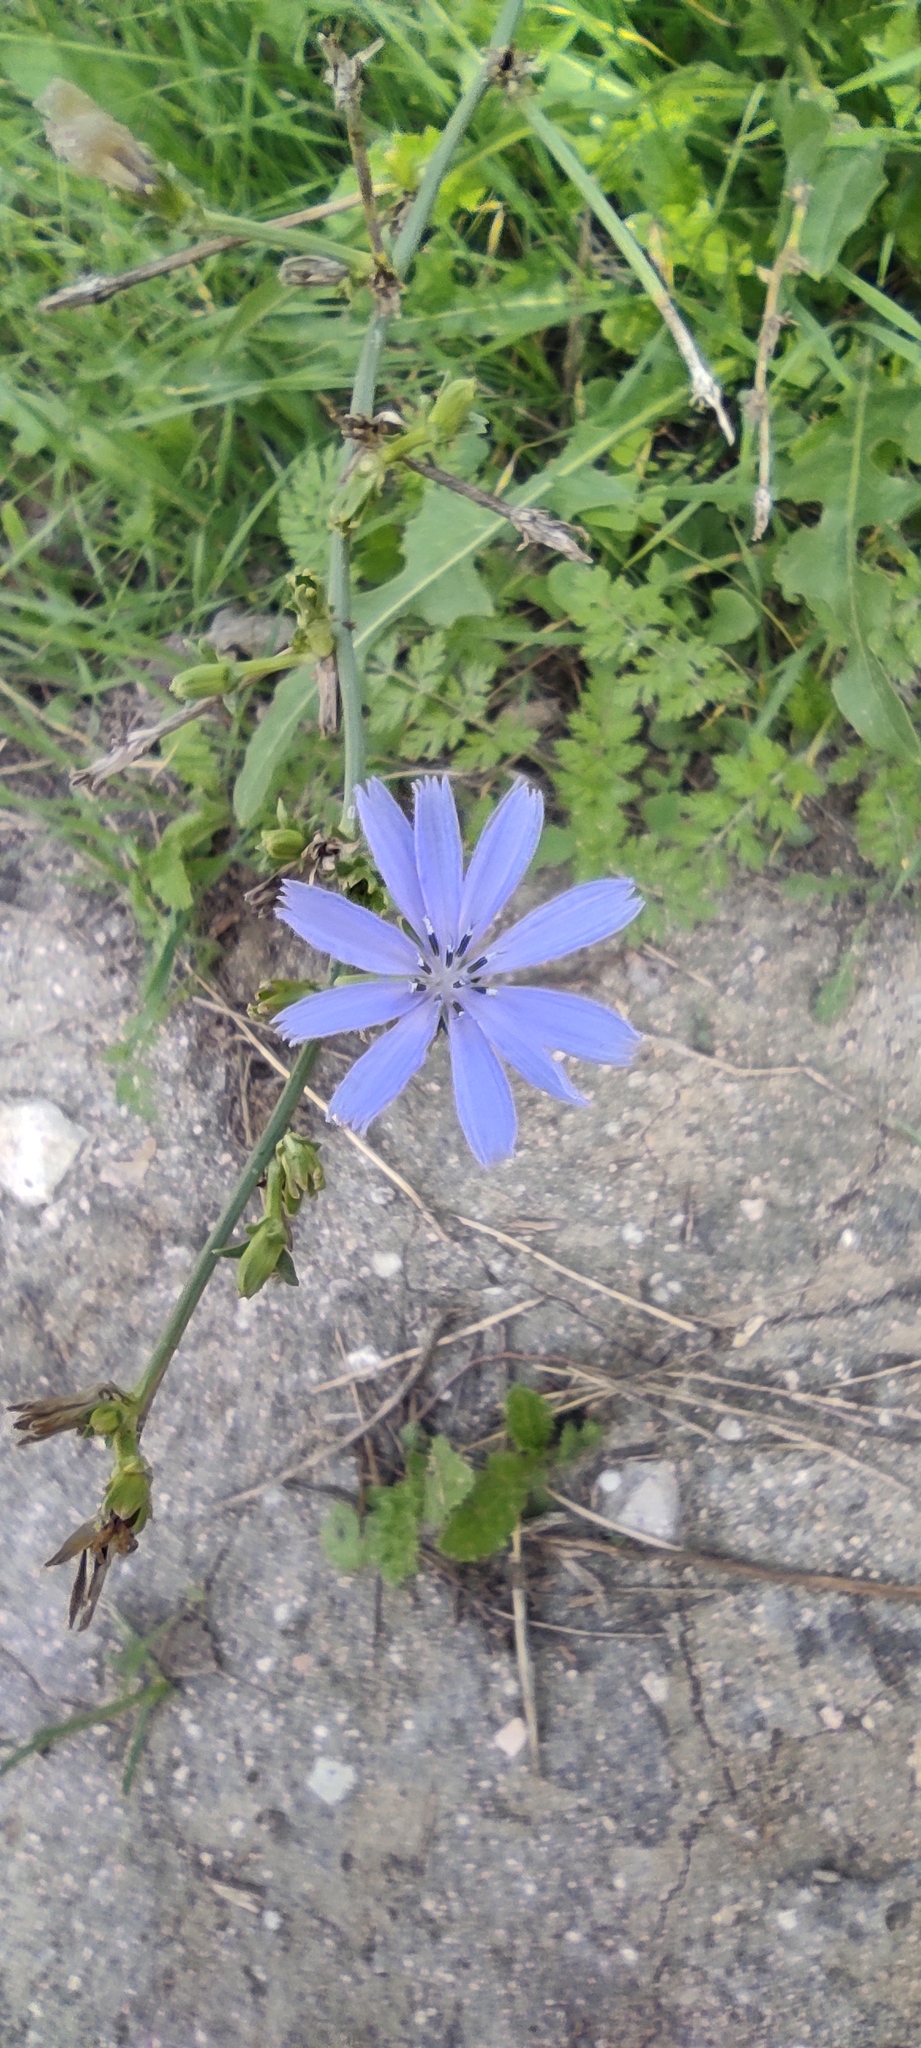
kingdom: Plantae
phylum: Tracheophyta
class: Magnoliopsida
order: Asterales
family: Asteraceae
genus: Cichorium
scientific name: Cichorium intybus
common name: Chicory
